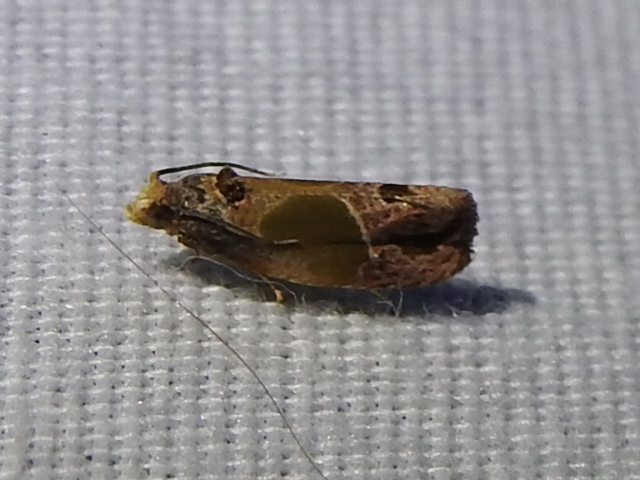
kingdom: Animalia
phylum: Arthropoda
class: Insecta
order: Lepidoptera
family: Tortricidae
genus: Eumarozia
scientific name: Eumarozia malachitana
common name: Sculptured moth
